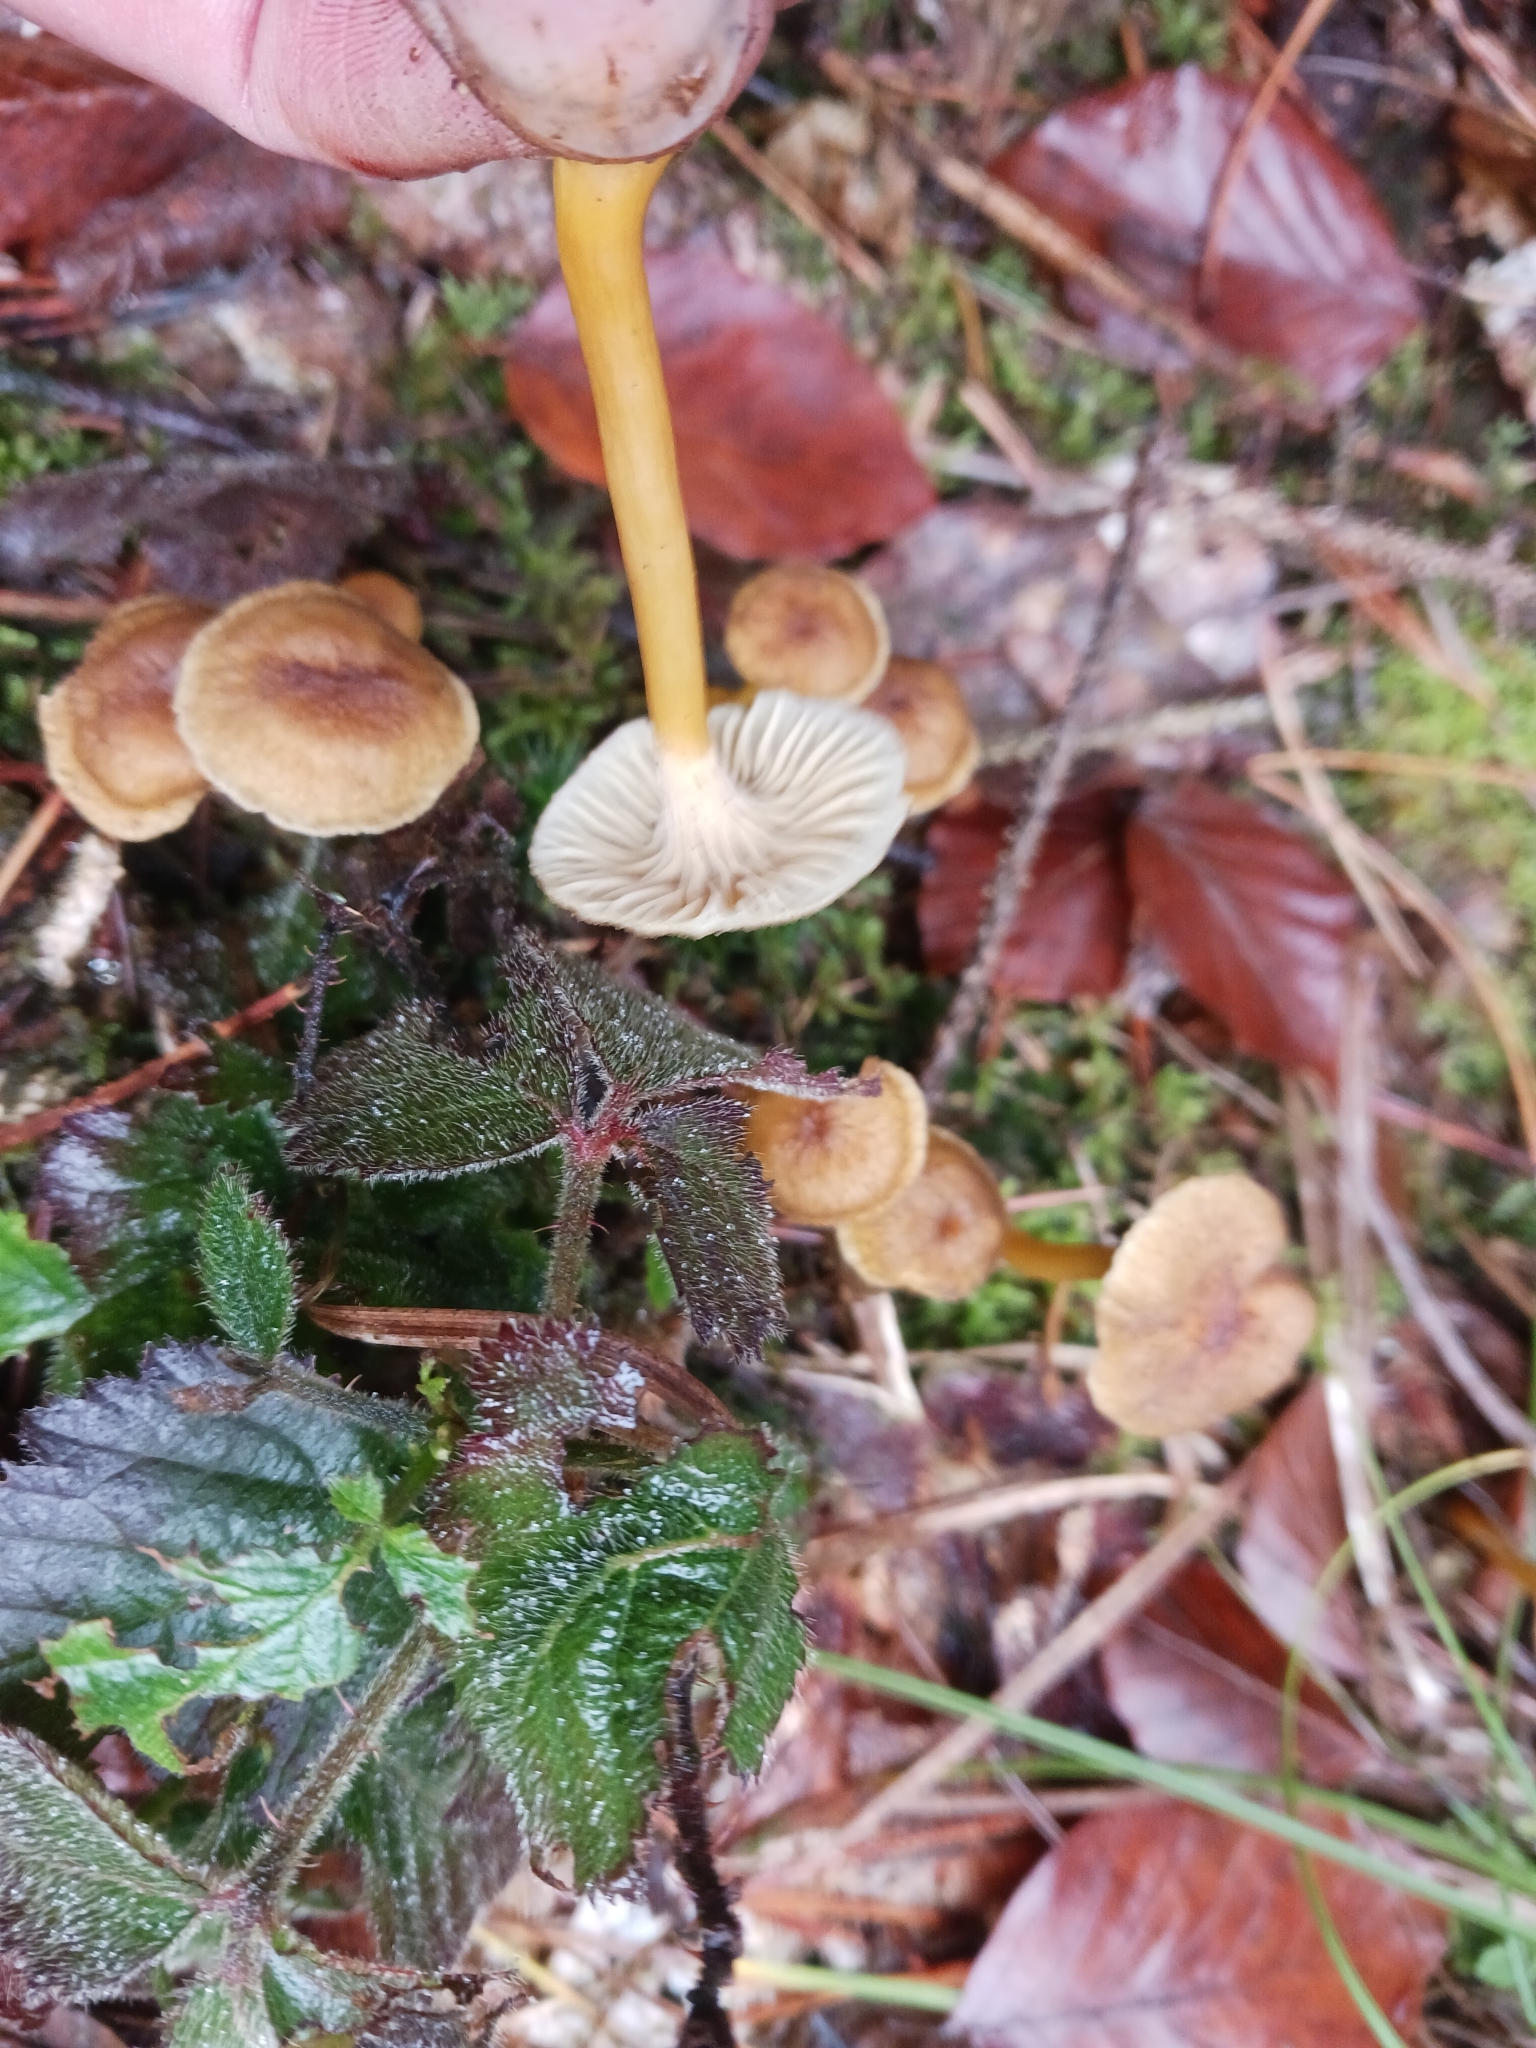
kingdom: Fungi
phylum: Basidiomycota
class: Agaricomycetes
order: Cantharellales
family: Hydnaceae
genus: Craterellus
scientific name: Craterellus tubaeformis
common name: Yellowfoot
